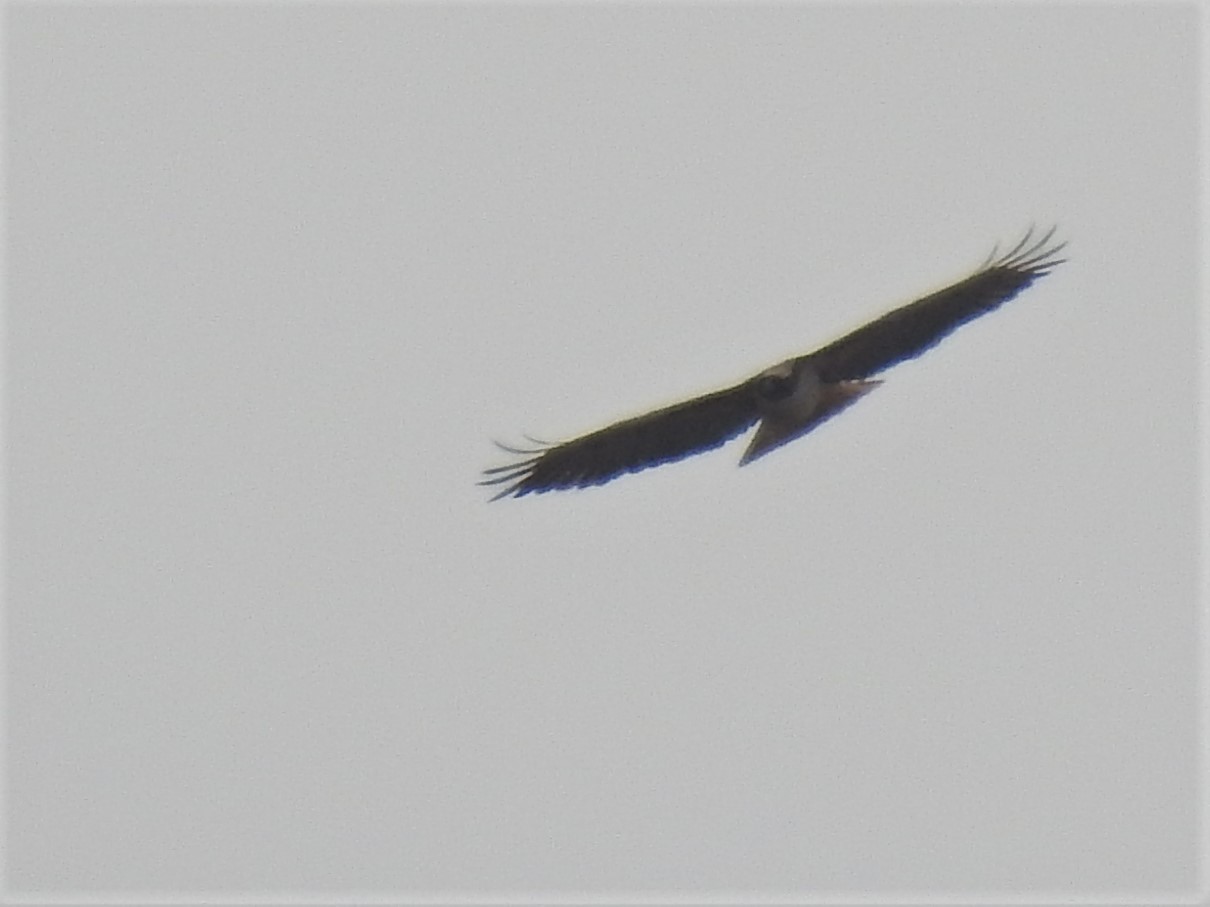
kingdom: Animalia
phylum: Chordata
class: Aves
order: Accipitriformes
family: Accipitridae
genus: Buteo
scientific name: Buteo lineatus
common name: Red-shouldered hawk
